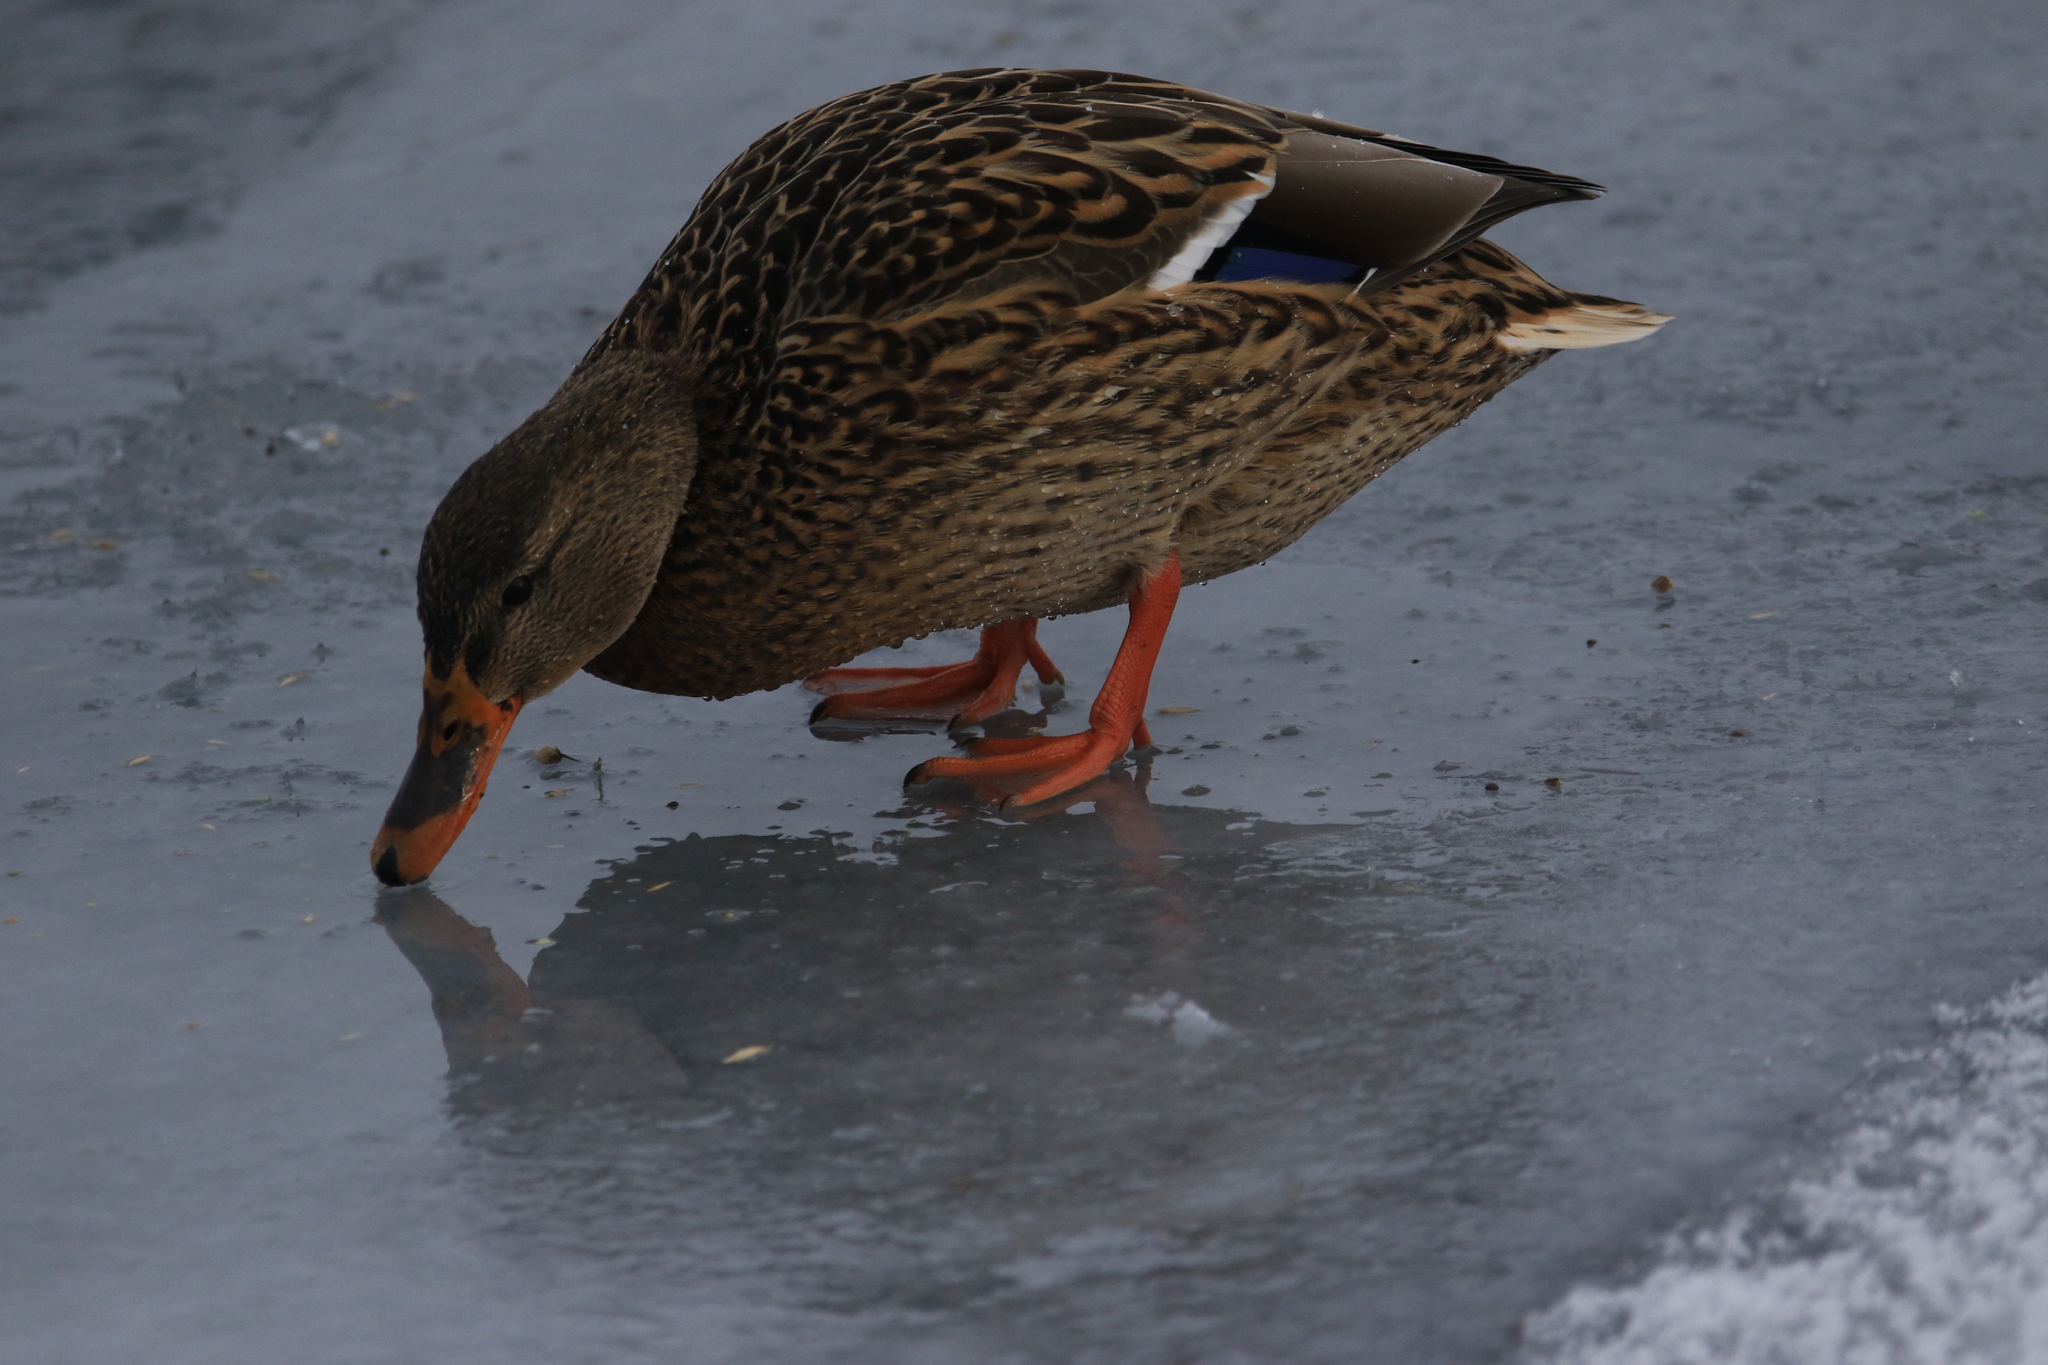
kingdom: Animalia
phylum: Chordata
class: Aves
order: Anseriformes
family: Anatidae
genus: Anas
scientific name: Anas platyrhynchos
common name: Mallard
